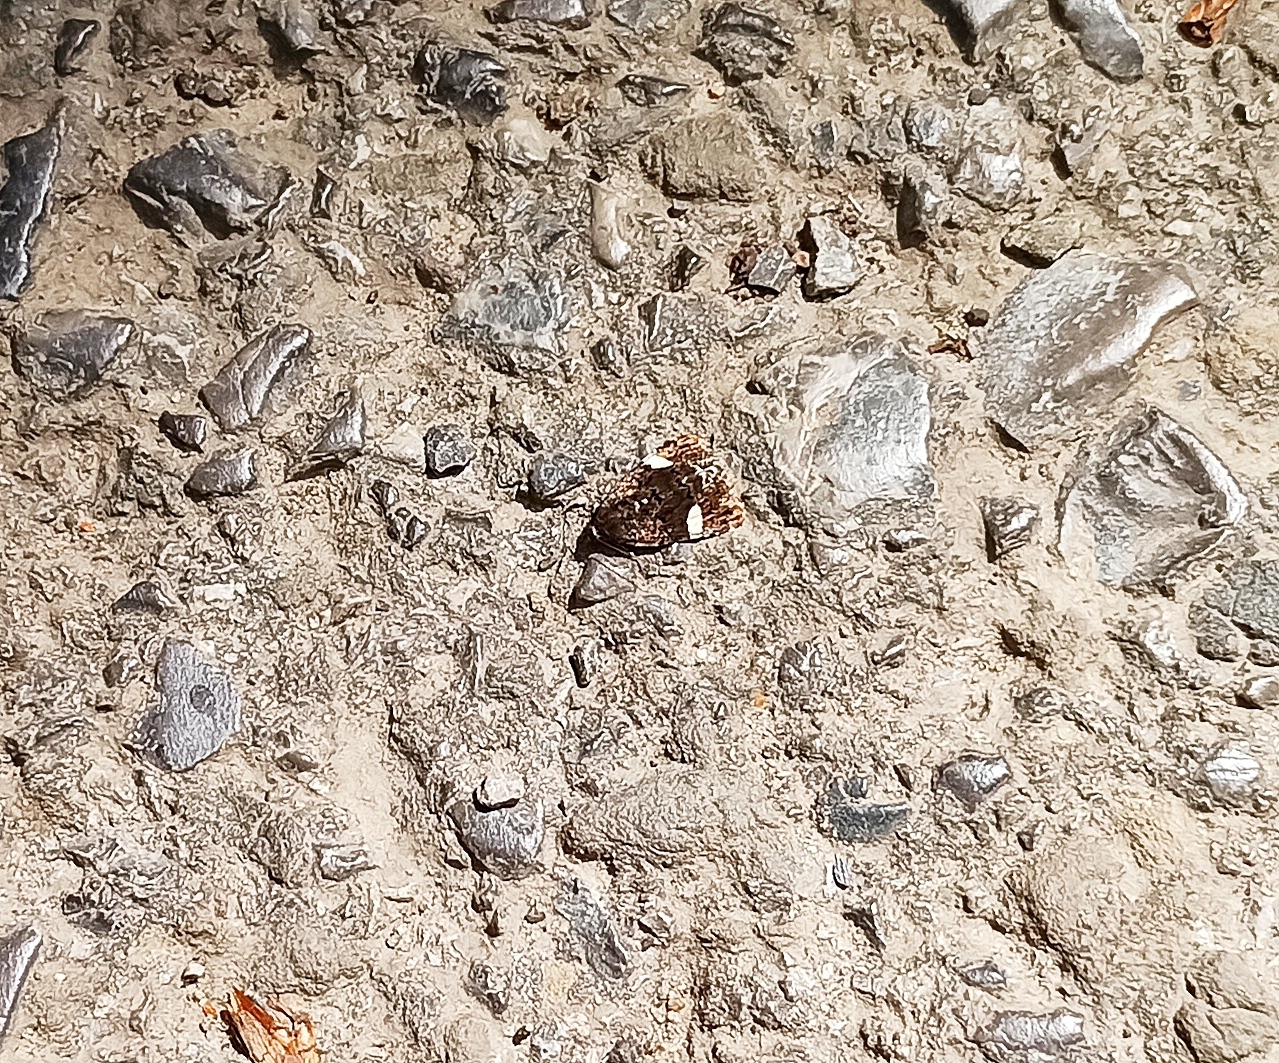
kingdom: Animalia
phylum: Arthropoda
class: Insecta
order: Lepidoptera
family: Erebidae
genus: Tyta
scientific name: Tyta luctuosa
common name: Four-spotted
